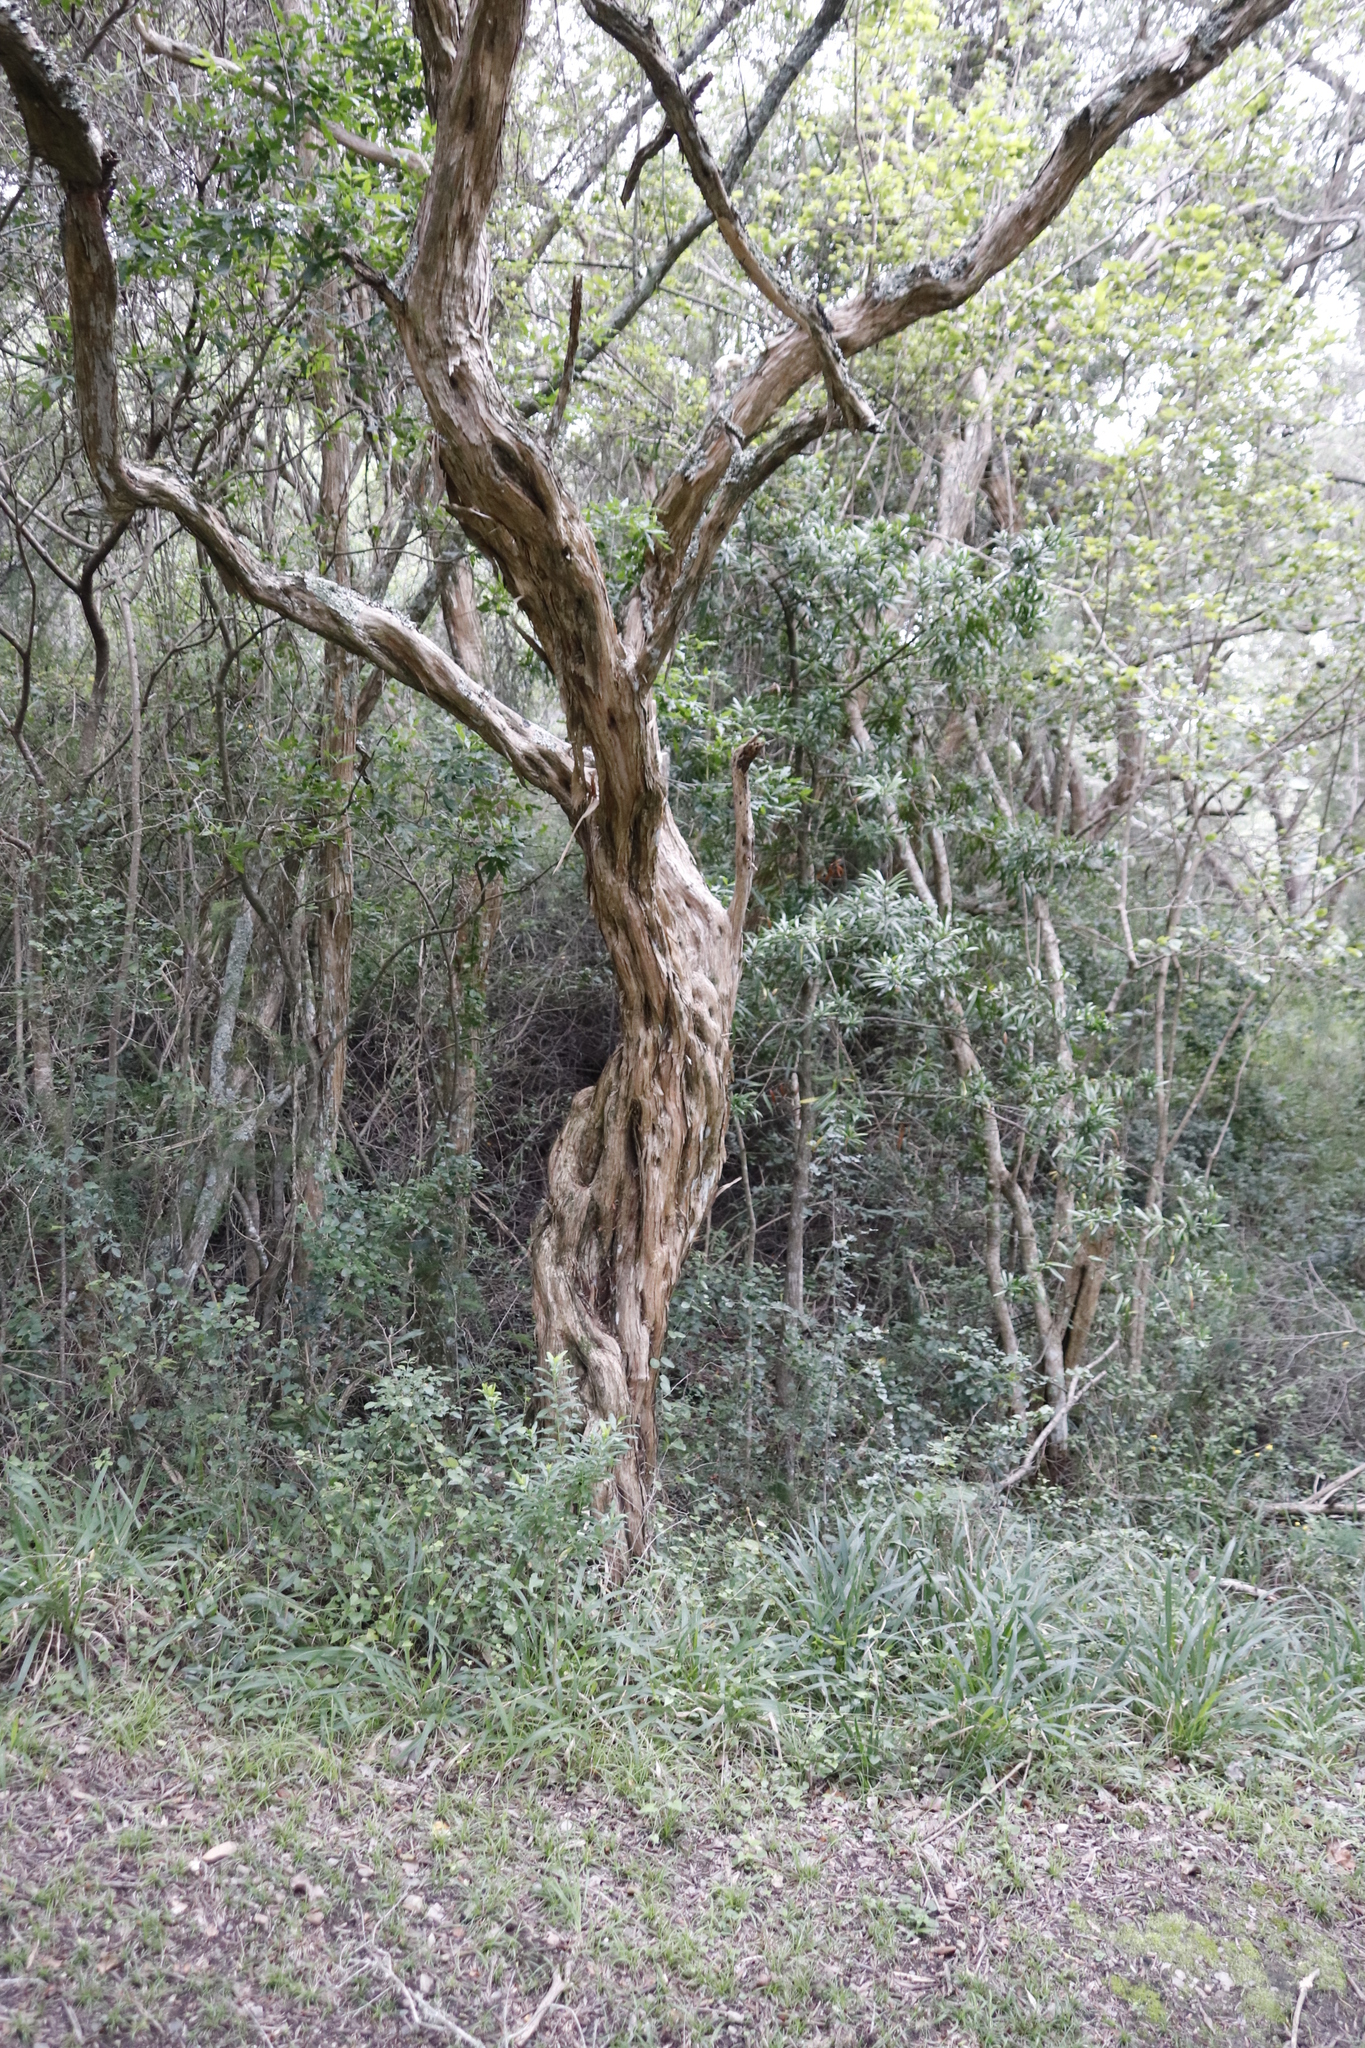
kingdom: Plantae
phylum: Tracheophyta
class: Magnoliopsida
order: Lamiales
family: Scrophulariaceae
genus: Buddleja
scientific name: Buddleja saligna
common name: False olive
